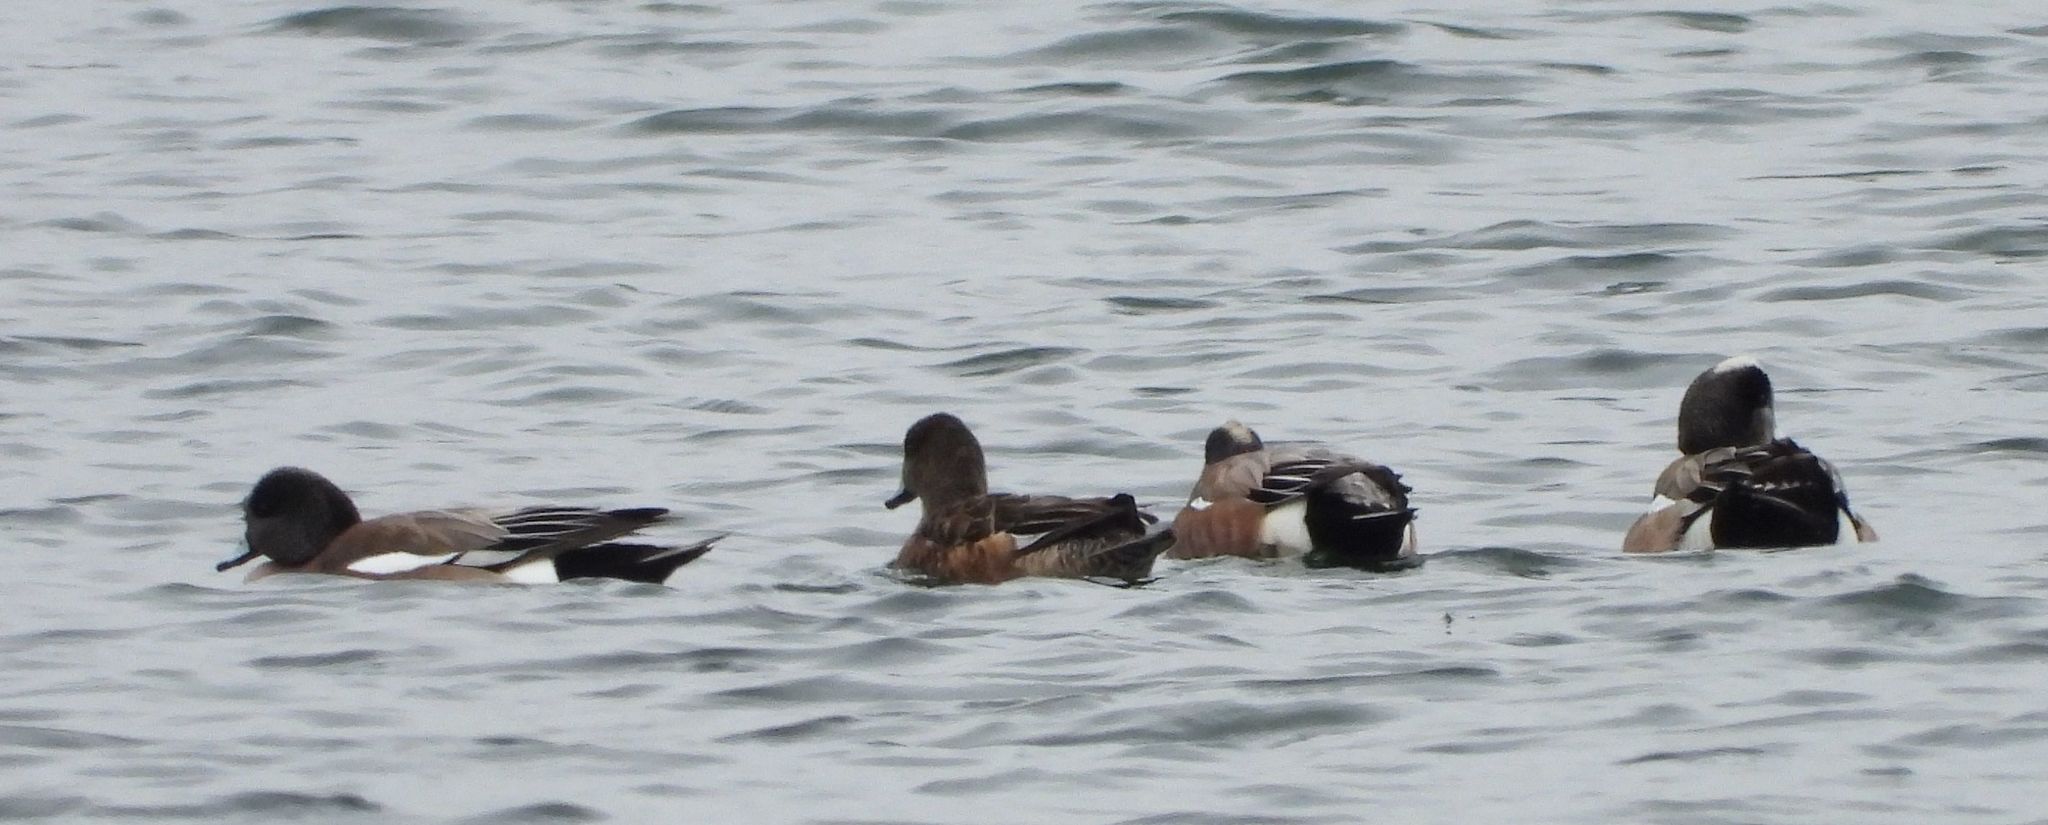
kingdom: Animalia
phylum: Chordata
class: Aves
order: Anseriformes
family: Anatidae
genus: Mareca
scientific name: Mareca americana
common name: American wigeon
